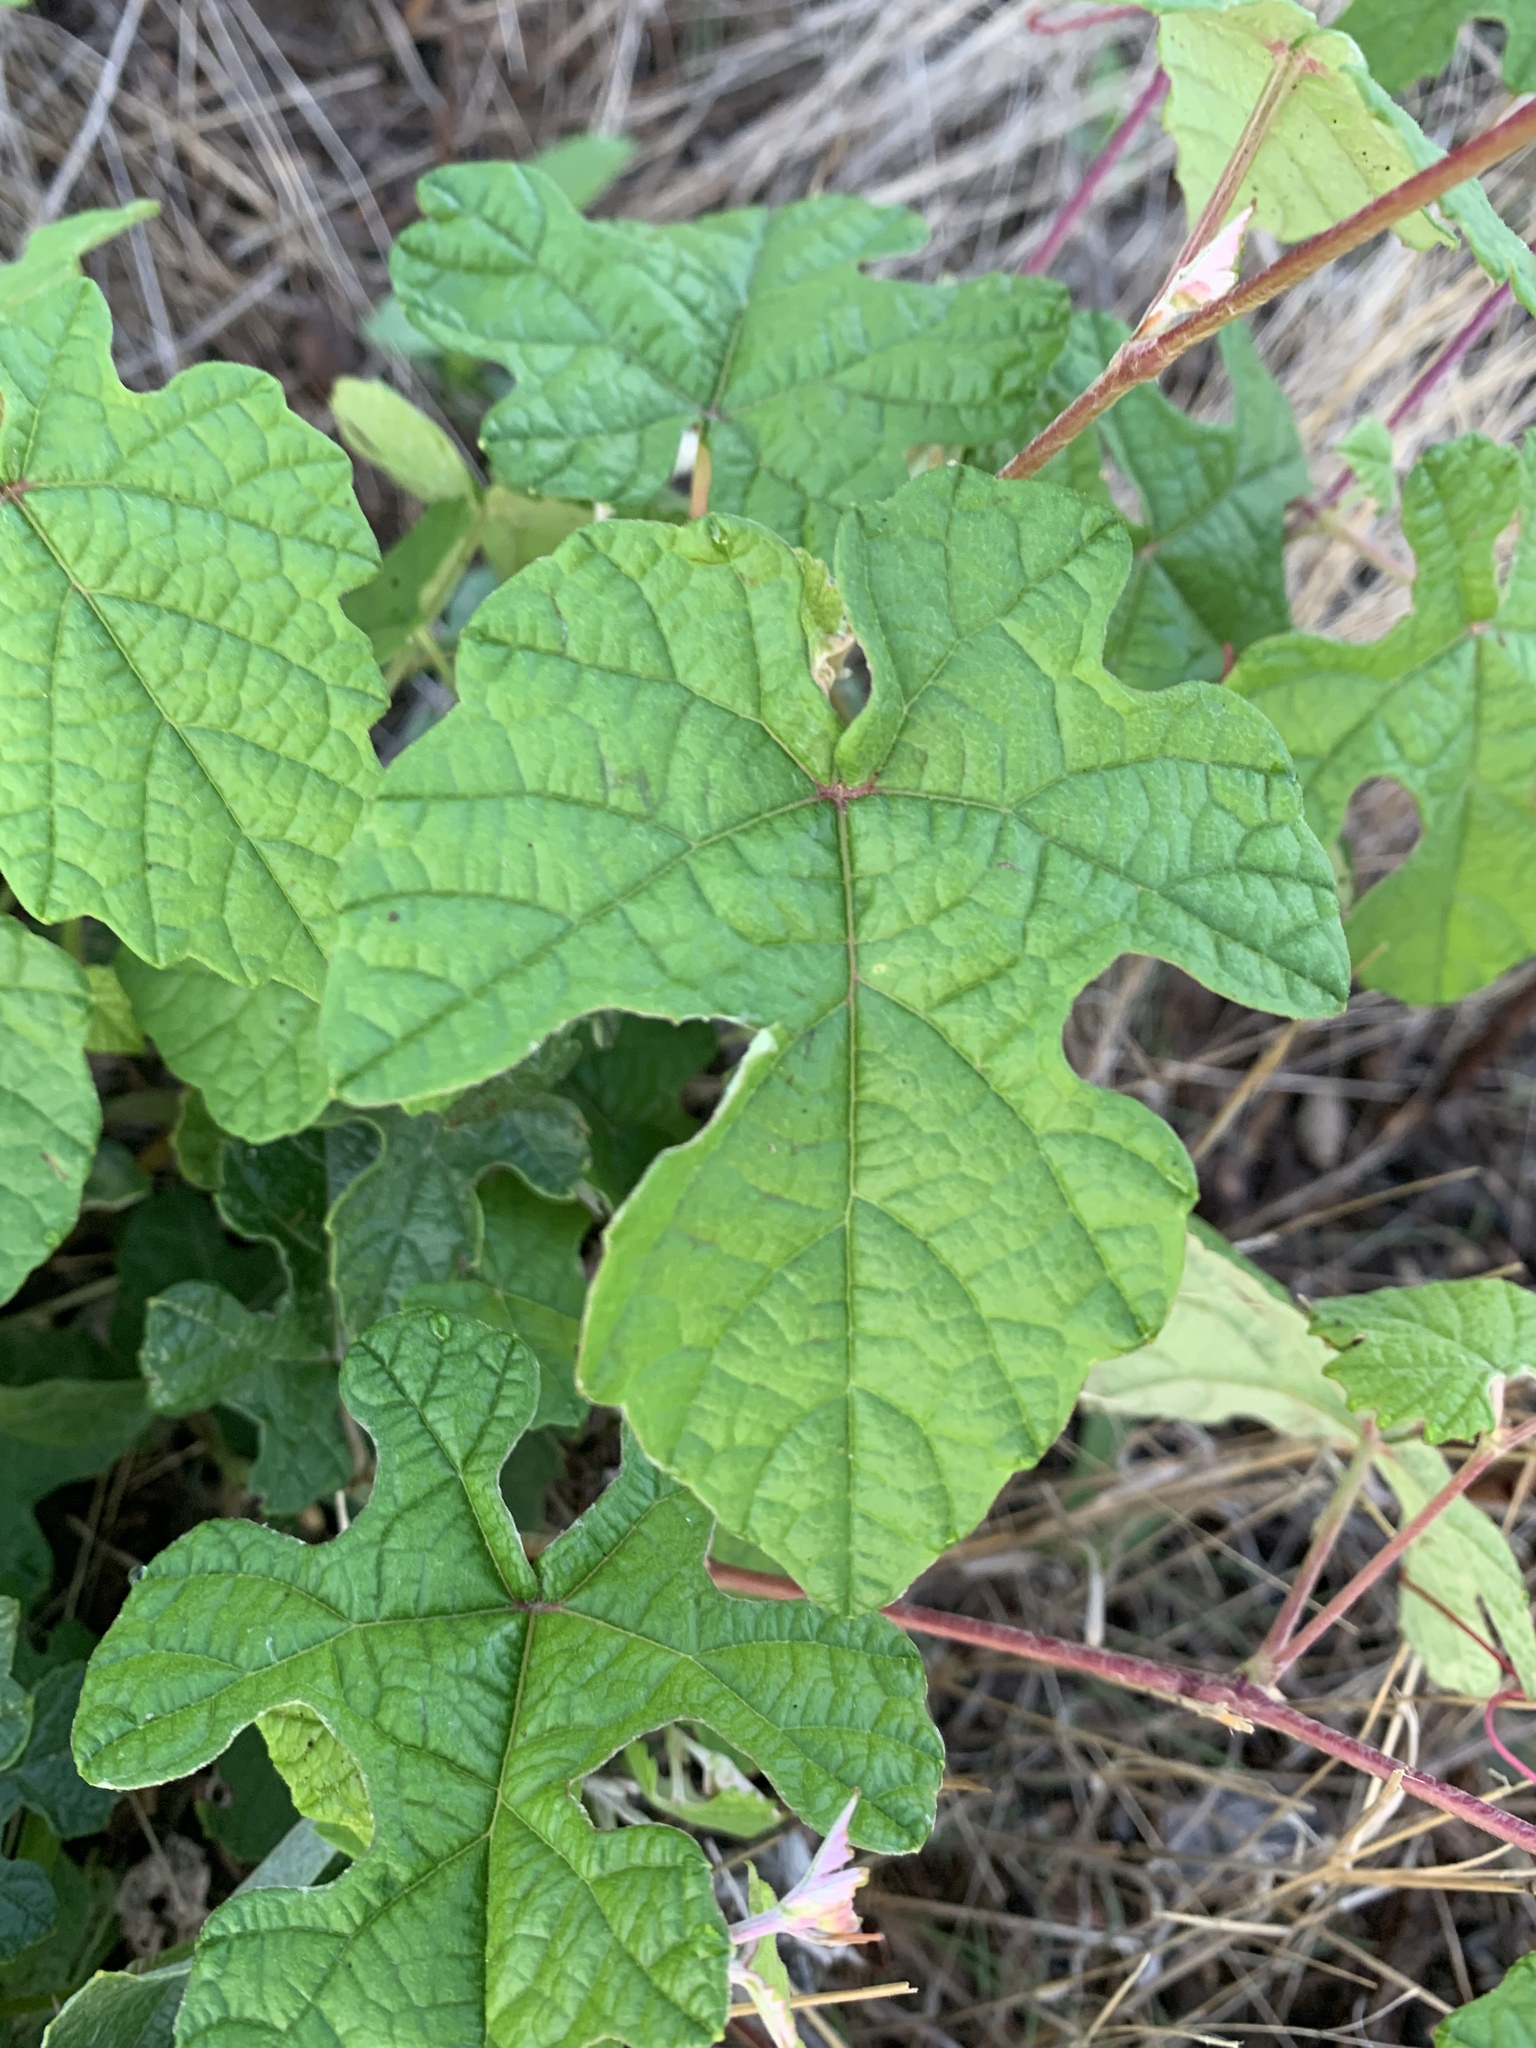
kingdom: Plantae
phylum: Tracheophyta
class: Magnoliopsida
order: Vitales
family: Vitaceae
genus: Vitis
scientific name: Vitis mustangensis
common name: Mustang grape
